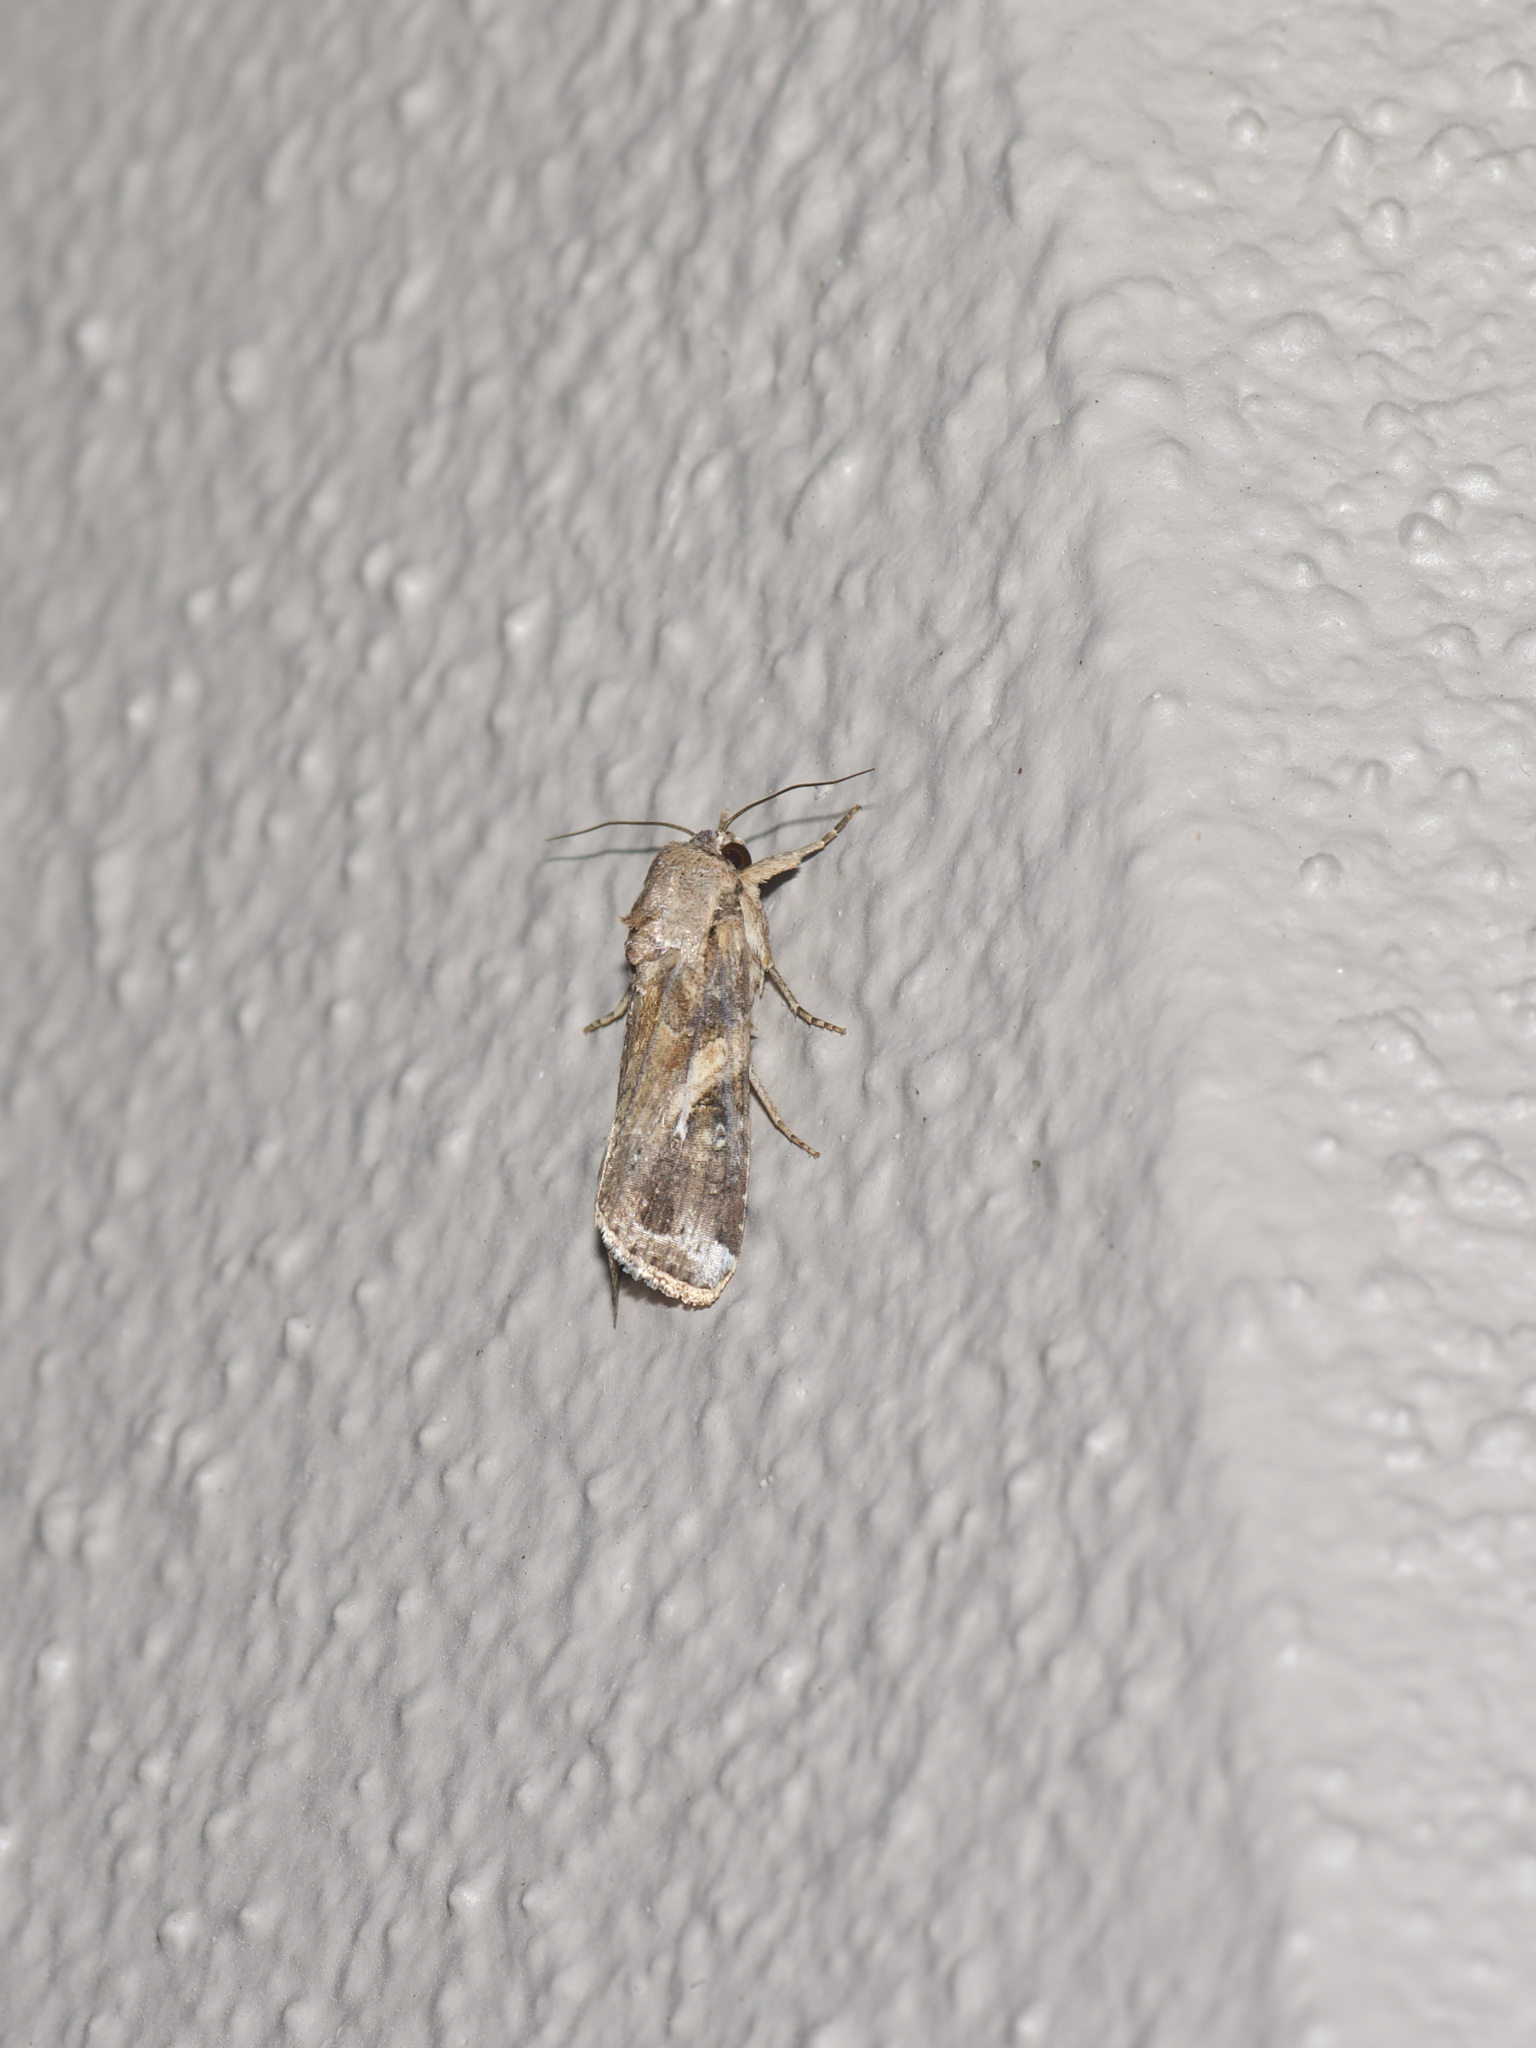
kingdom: Animalia
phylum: Arthropoda
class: Insecta
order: Lepidoptera
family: Noctuidae
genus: Spodoptera
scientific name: Spodoptera frugiperda
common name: Fall armyworm
